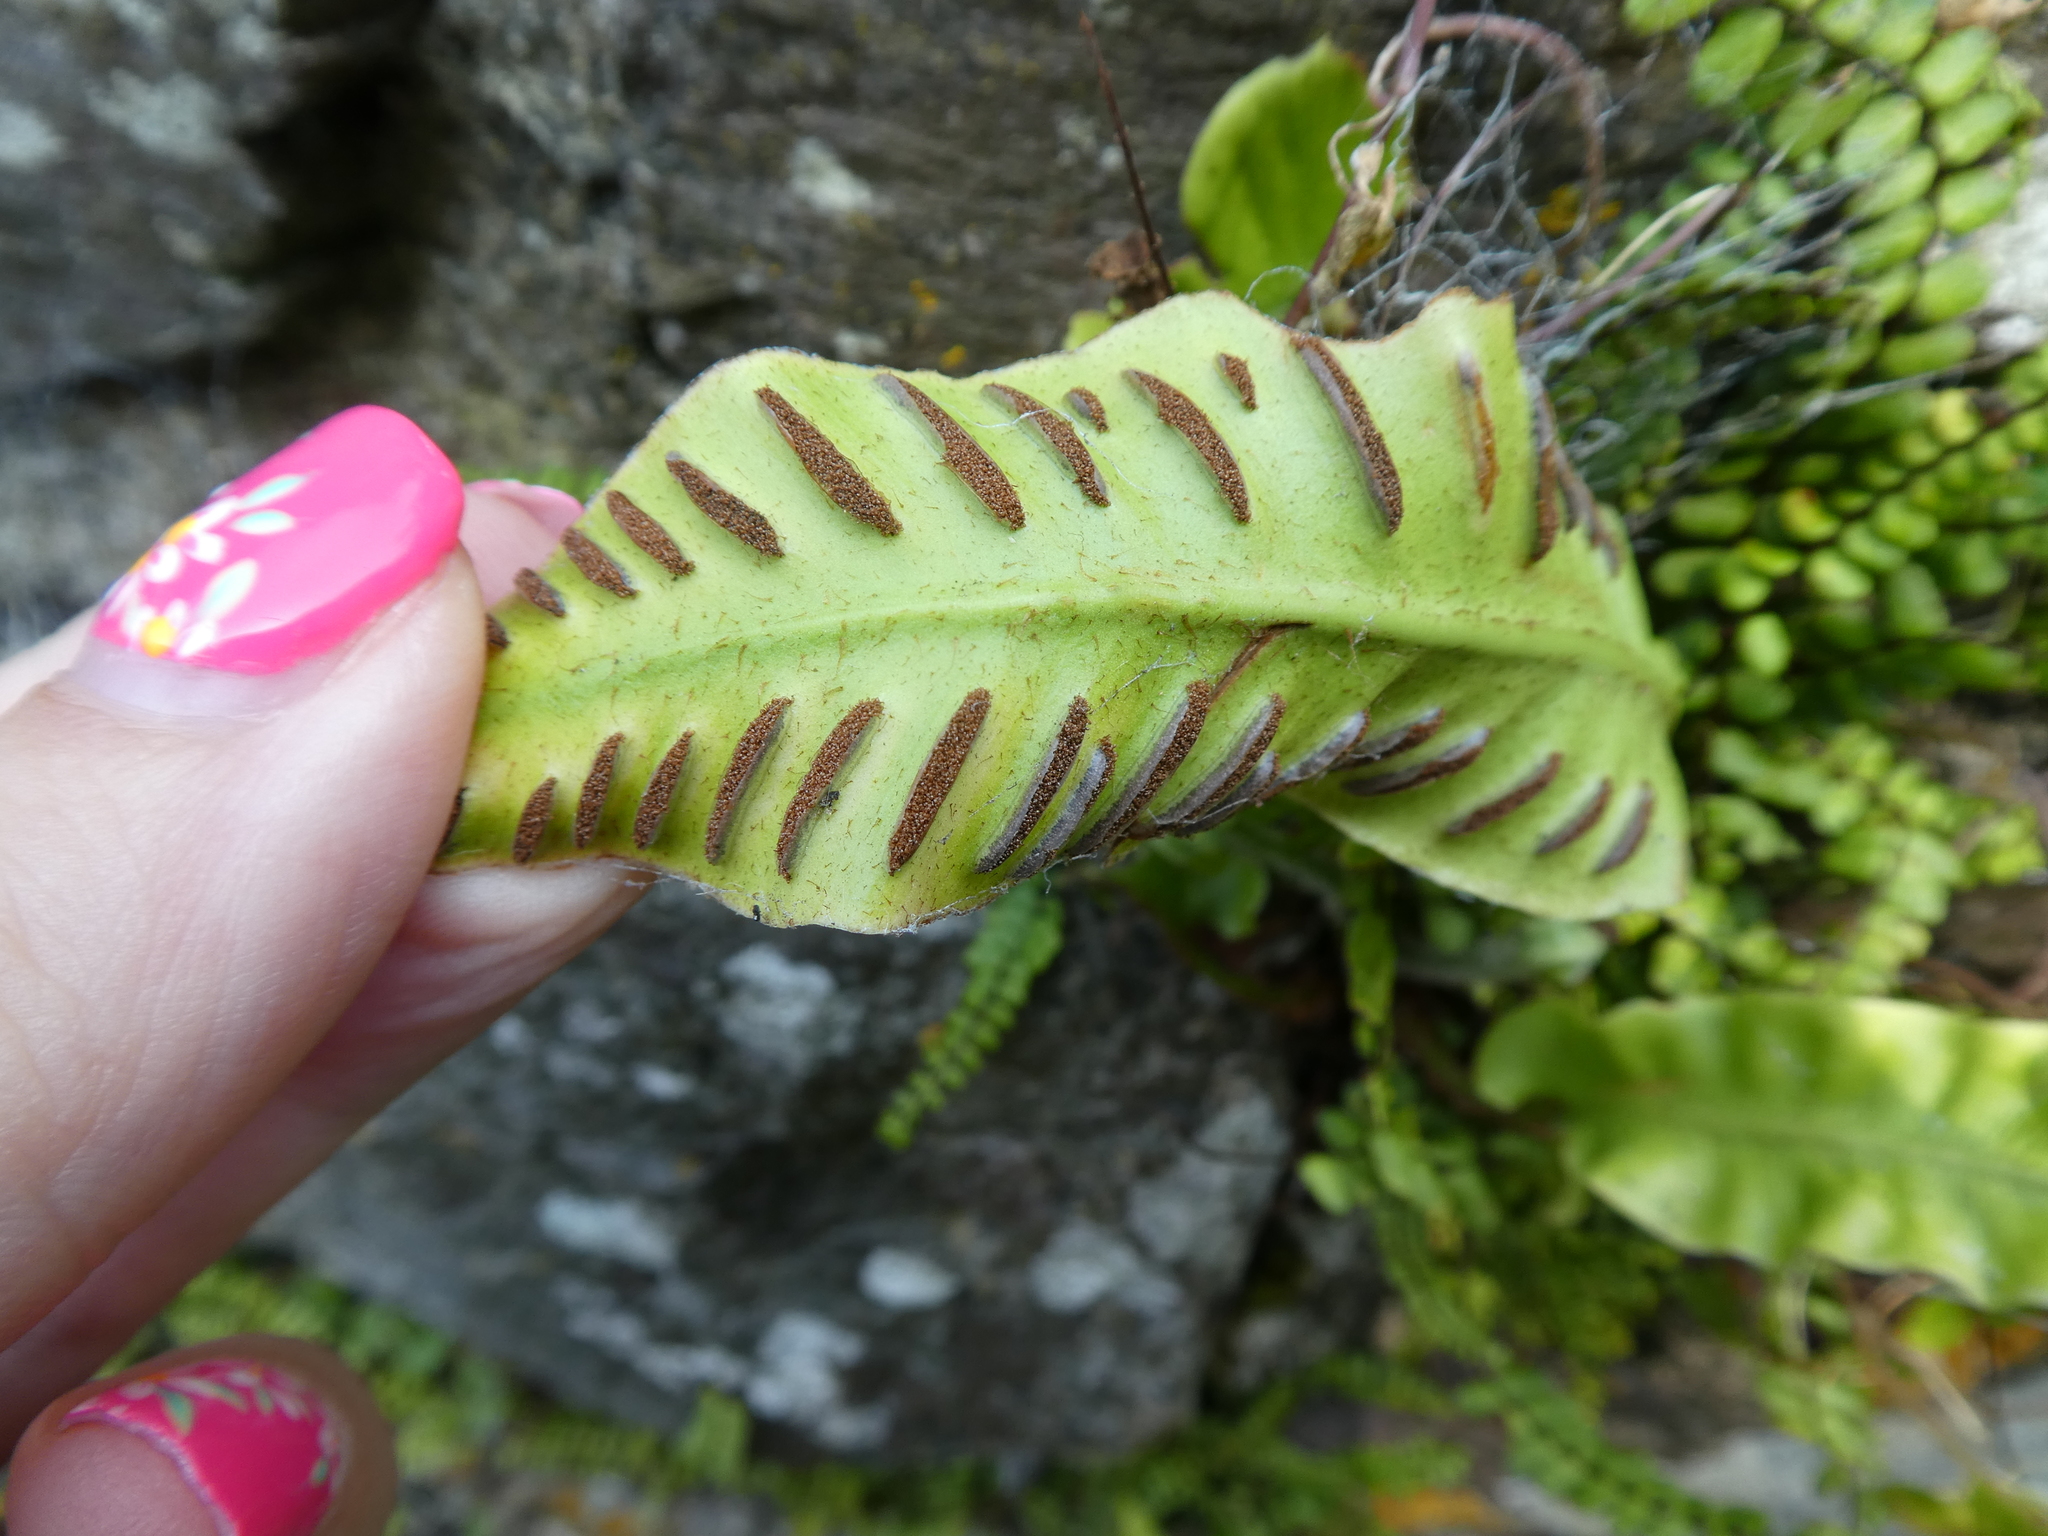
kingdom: Plantae
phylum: Tracheophyta
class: Polypodiopsida
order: Polypodiales
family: Aspleniaceae
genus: Asplenium
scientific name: Asplenium scolopendrium
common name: Hart's-tongue fern
